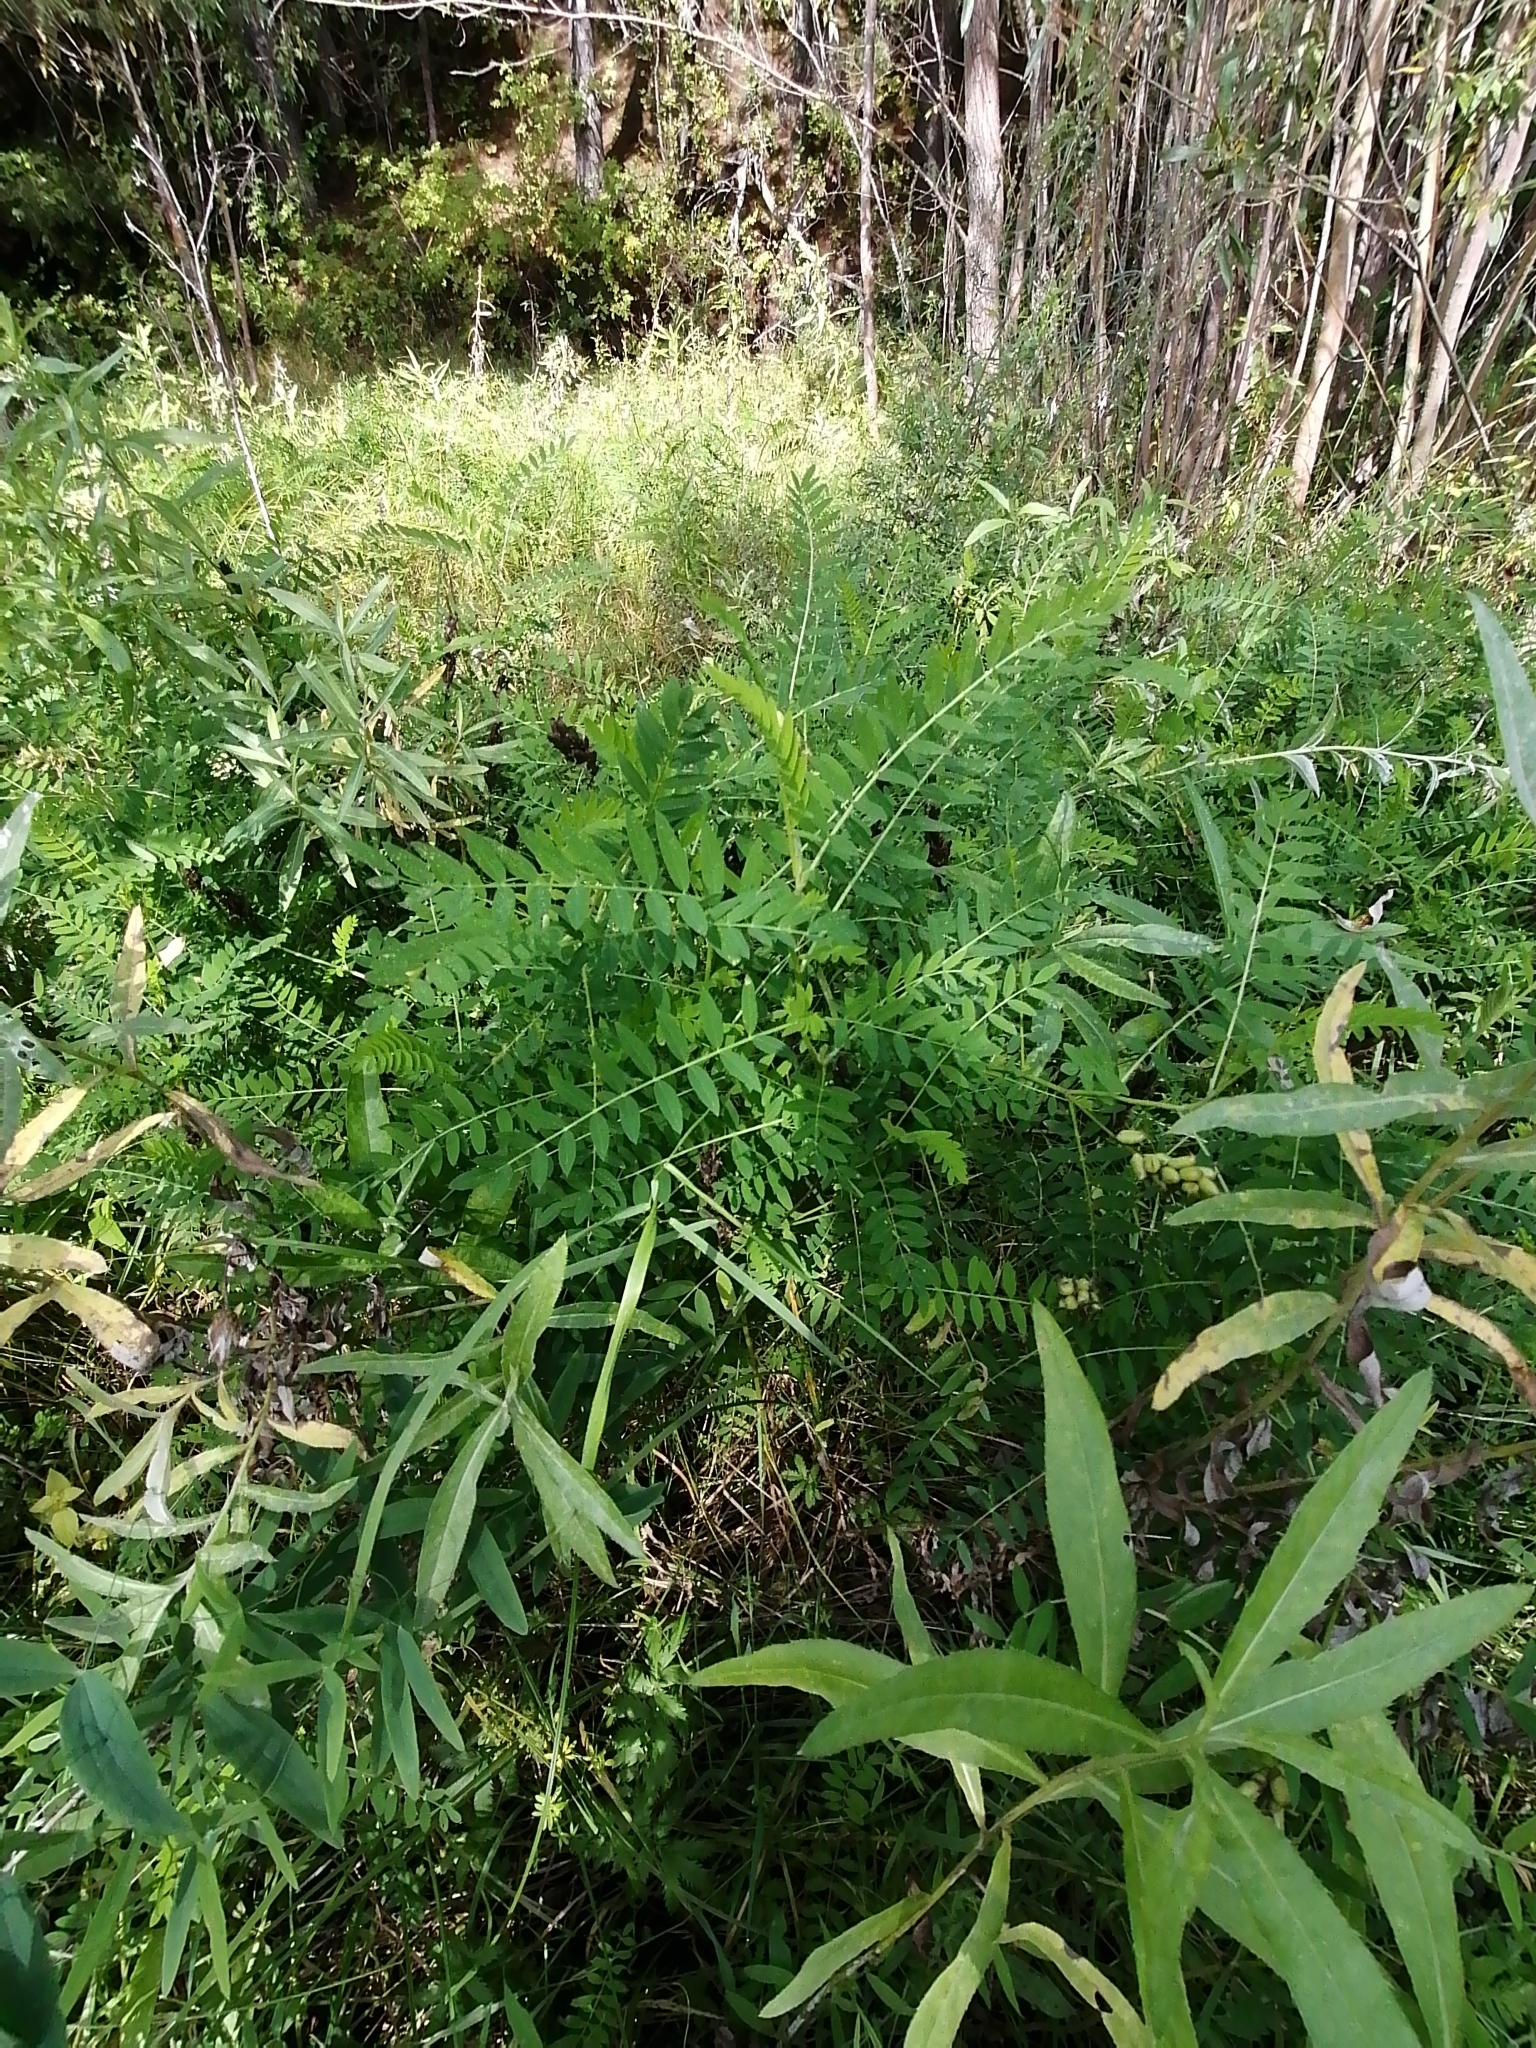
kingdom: Plantae
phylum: Tracheophyta
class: Magnoliopsida
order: Fabales
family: Fabaceae
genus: Astragalus
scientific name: Astragalus uliginosus
